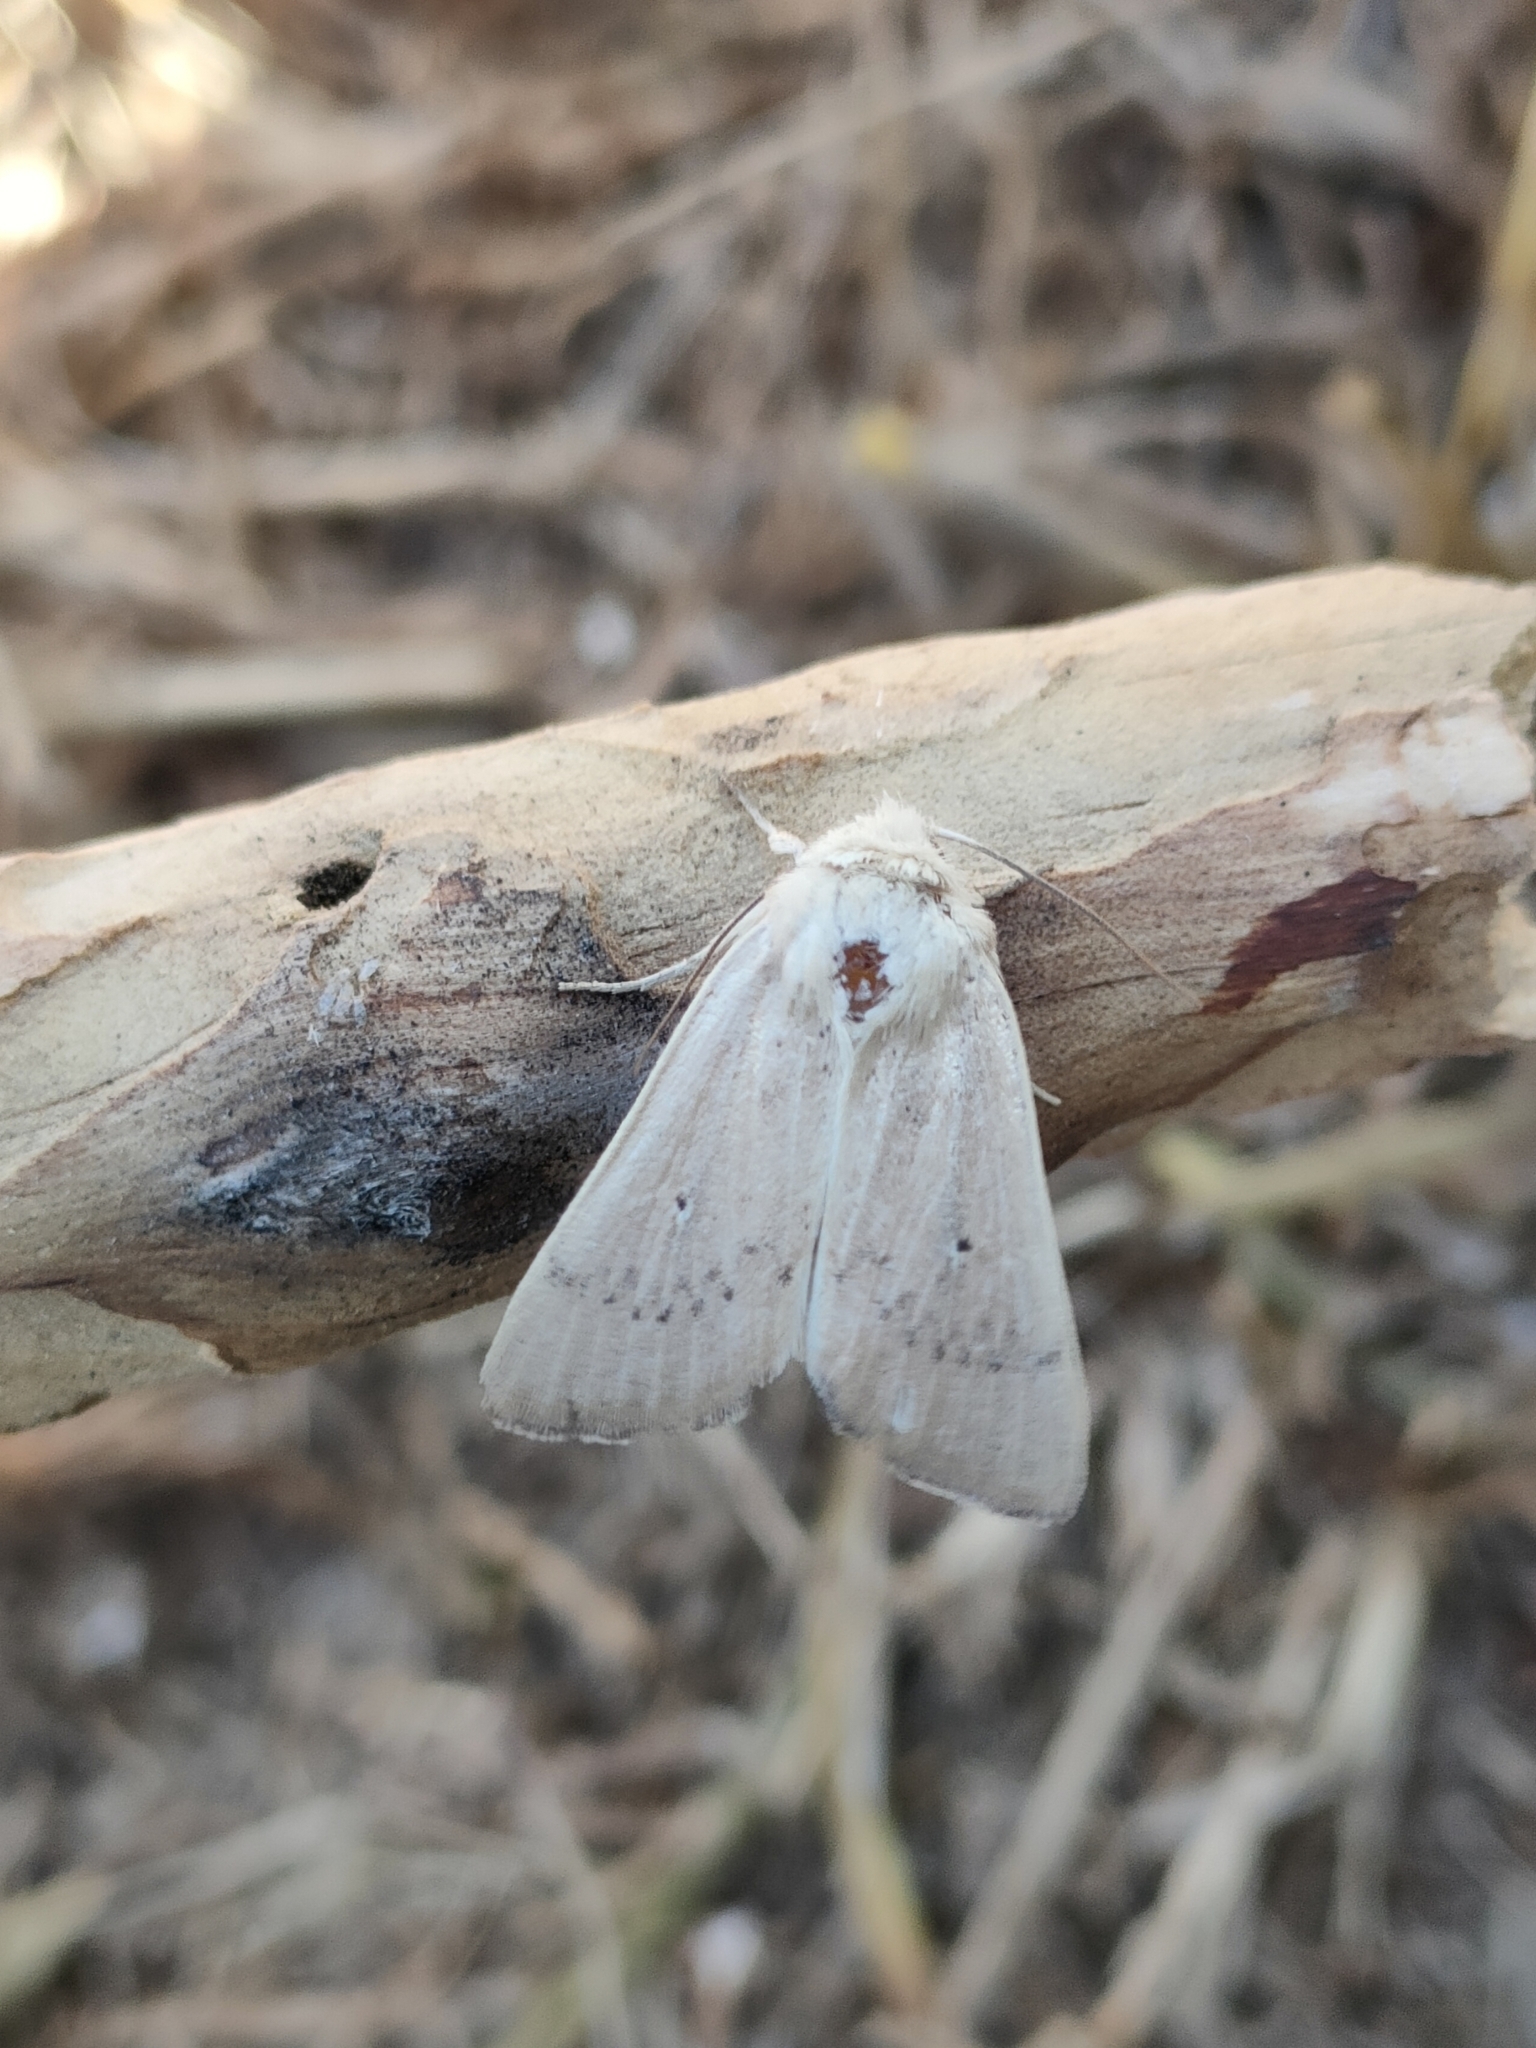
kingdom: Animalia
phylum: Arthropoda
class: Insecta
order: Lepidoptera
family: Noctuidae
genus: Mythimna
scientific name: Mythimna sicula
